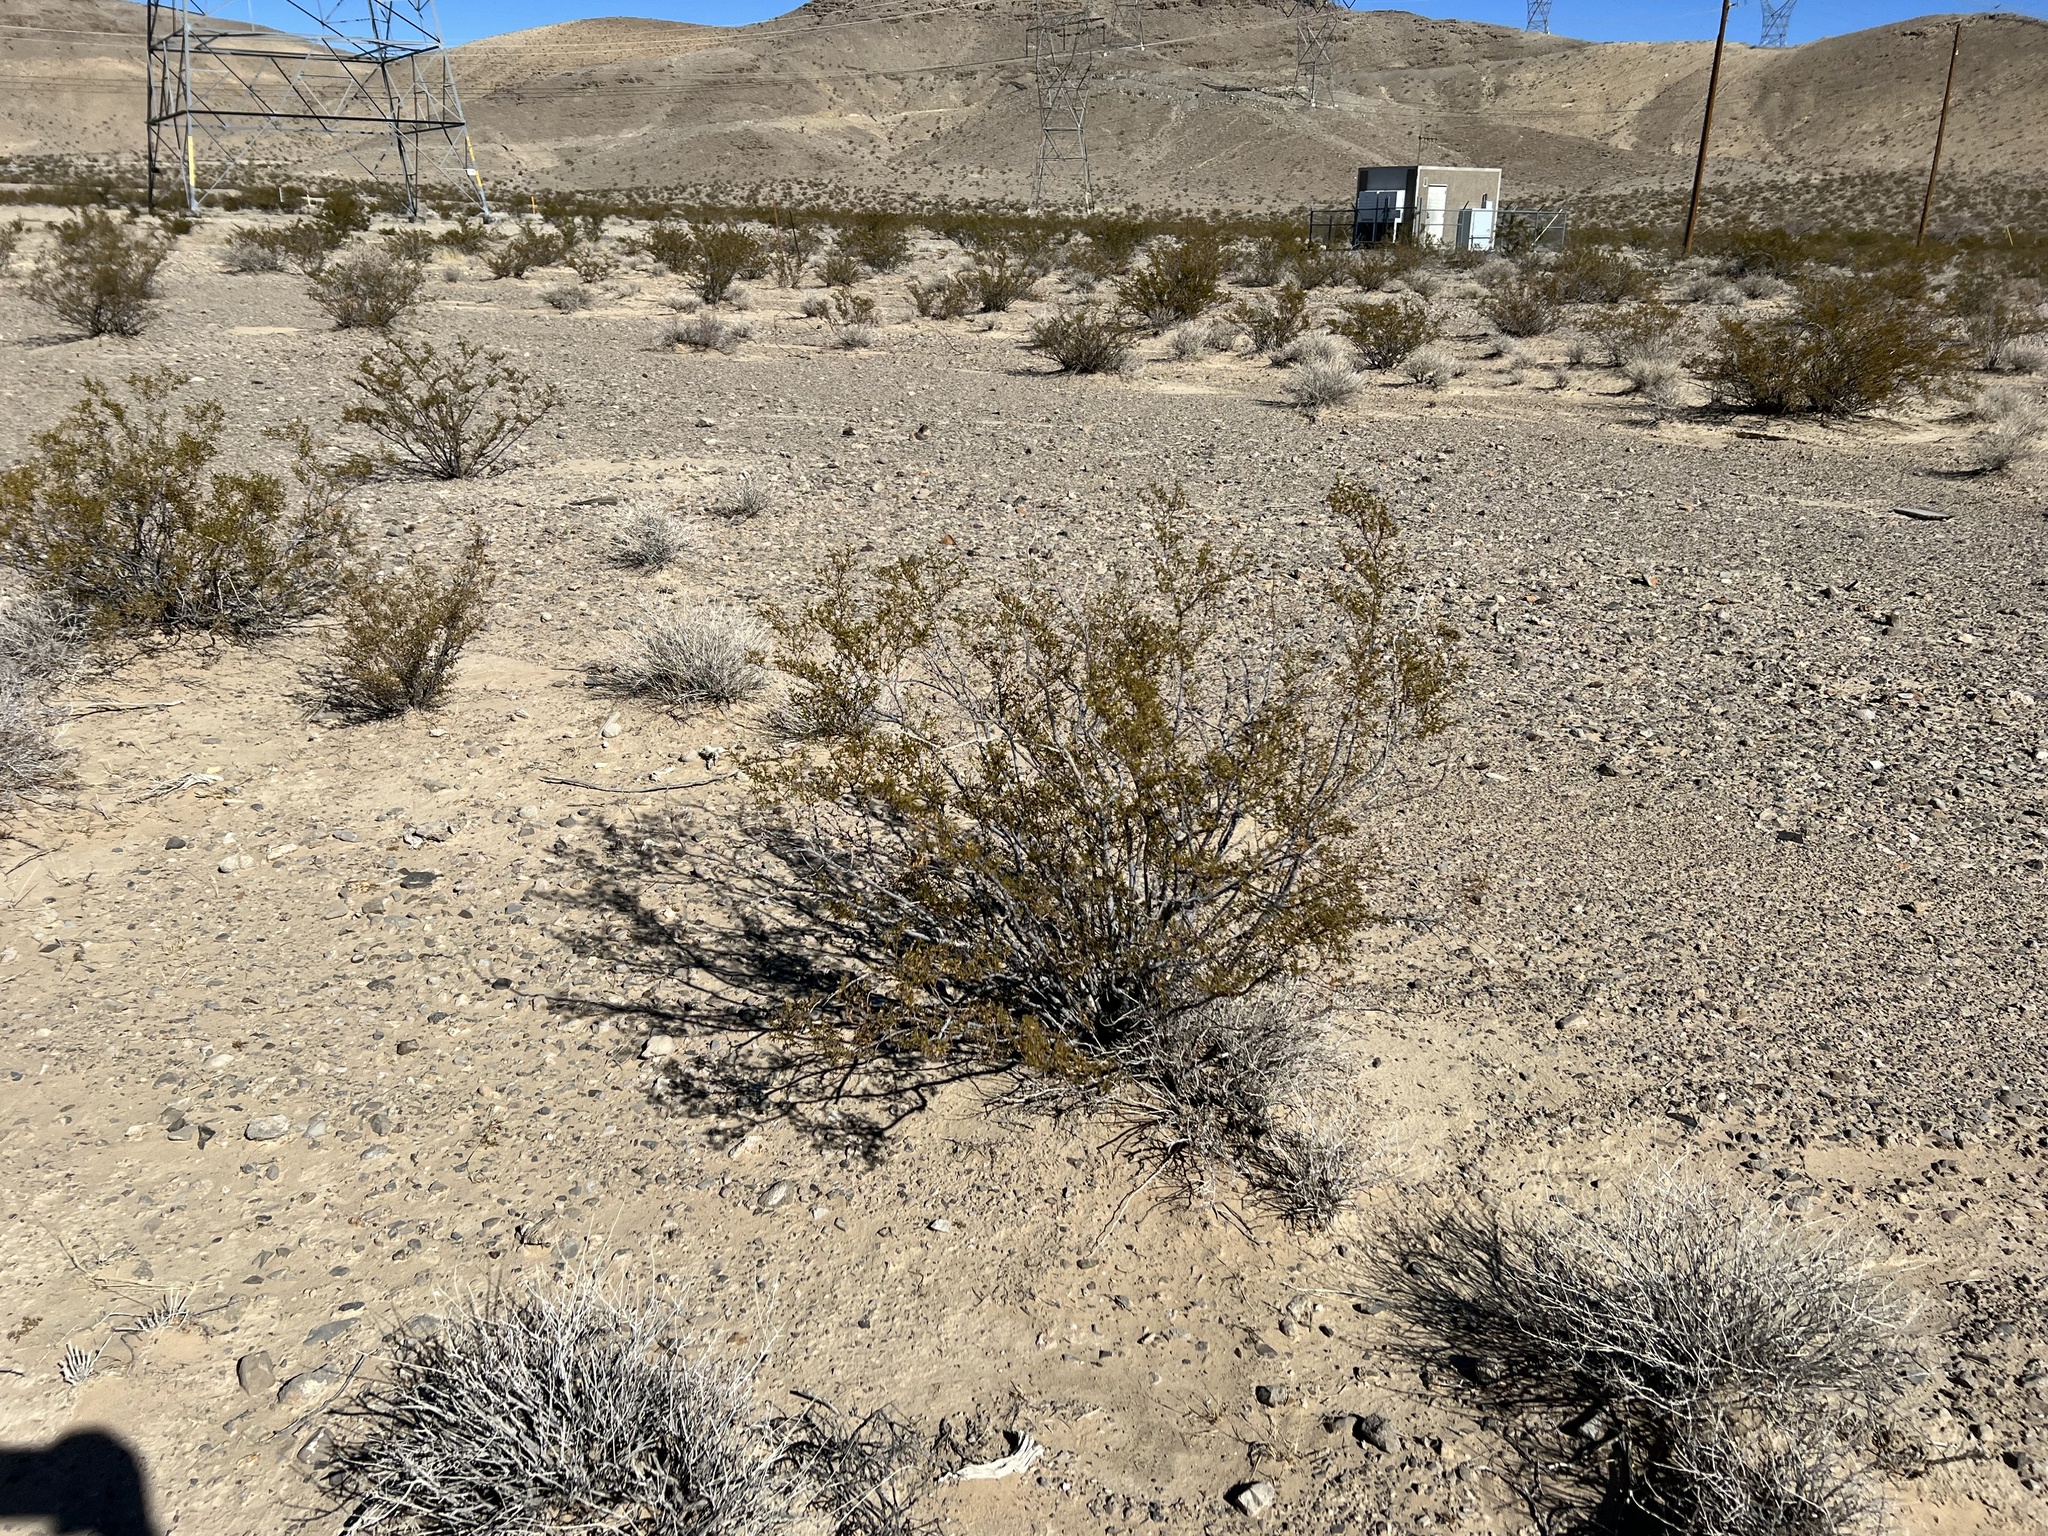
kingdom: Plantae
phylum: Tracheophyta
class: Magnoliopsida
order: Zygophyllales
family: Zygophyllaceae
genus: Larrea
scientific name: Larrea tridentata
